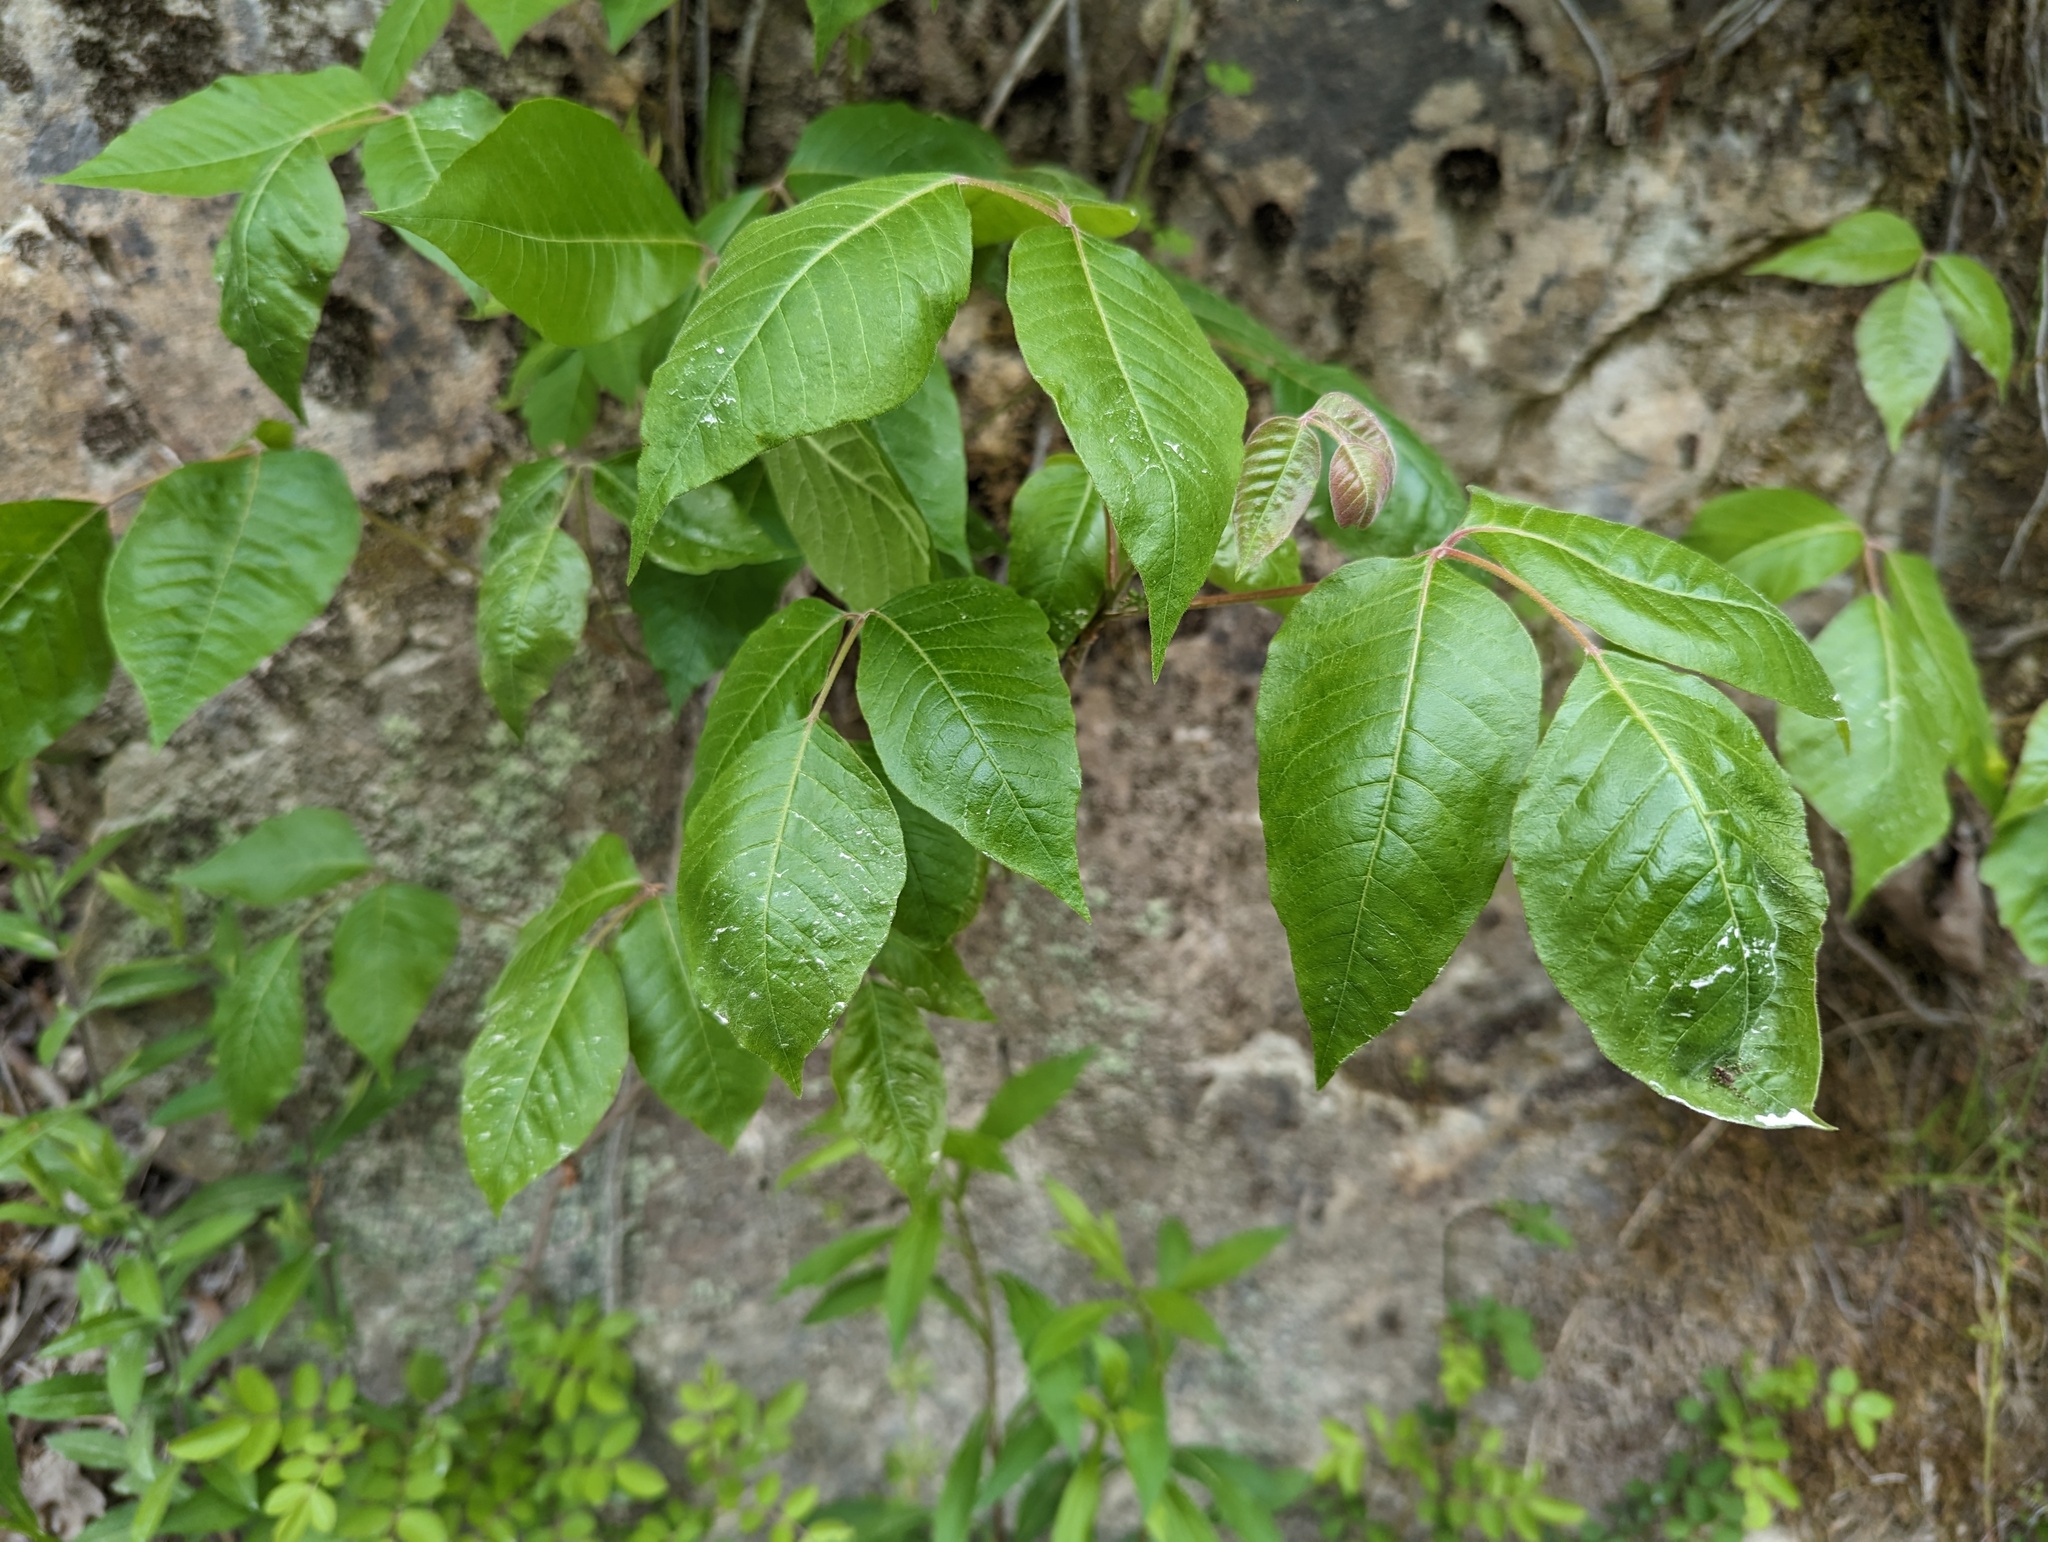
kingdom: Plantae
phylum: Tracheophyta
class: Magnoliopsida
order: Sapindales
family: Anacardiaceae
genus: Toxicodendron
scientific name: Toxicodendron radicans
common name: Poison ivy
